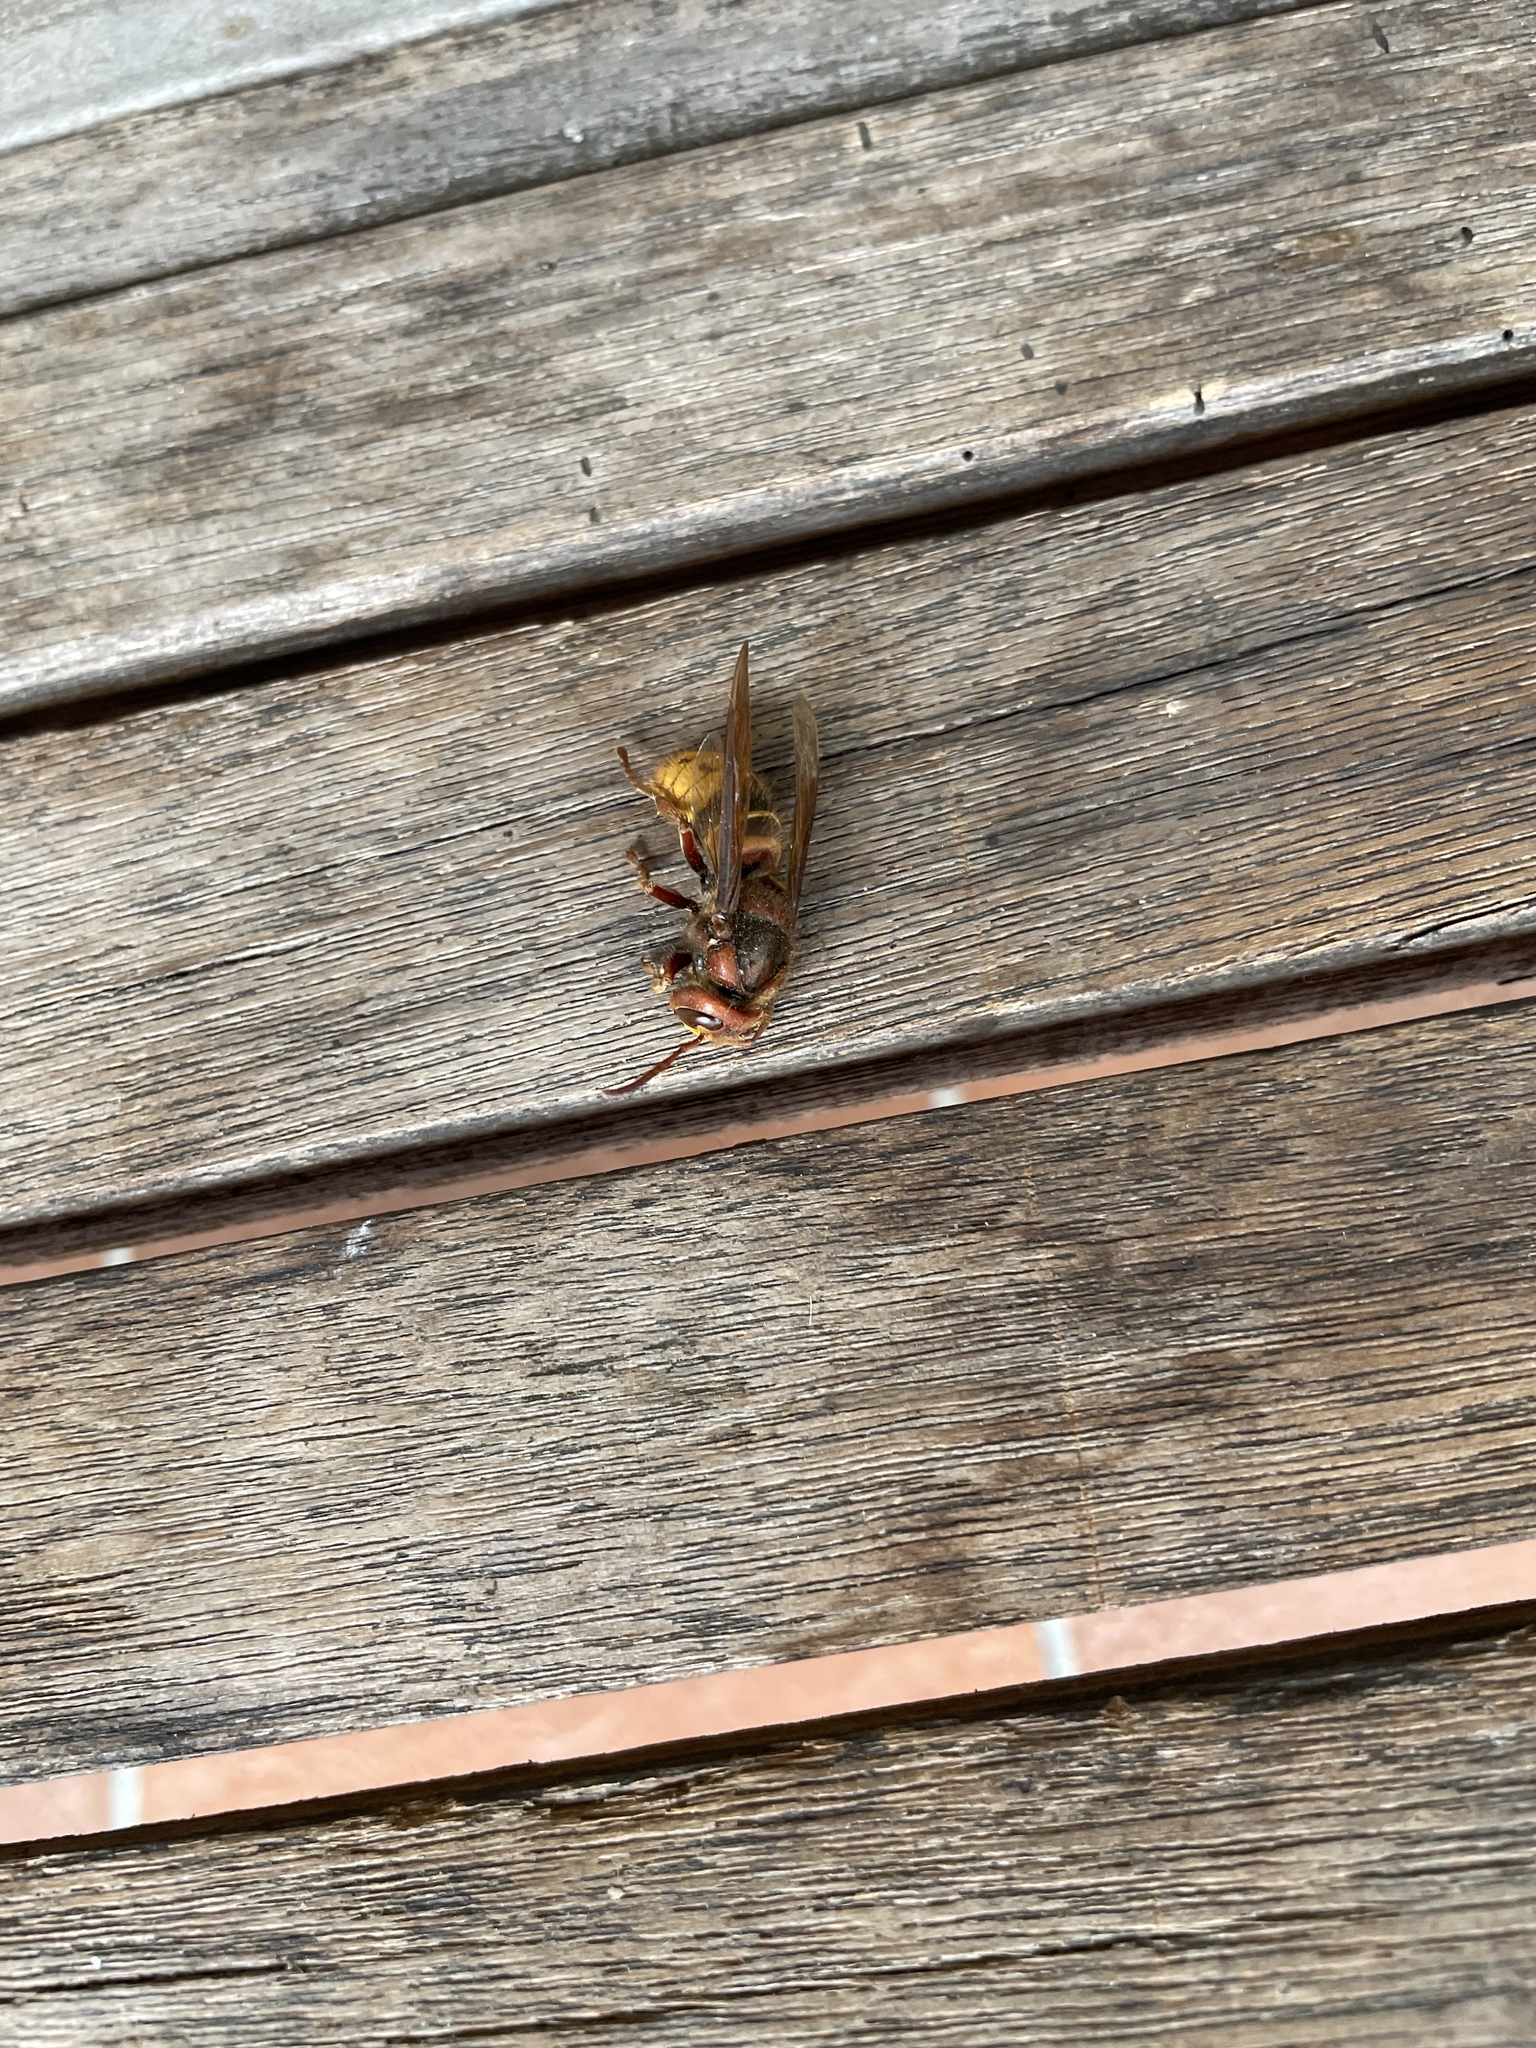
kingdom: Animalia
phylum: Arthropoda
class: Insecta
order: Hymenoptera
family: Vespidae
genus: Vespa
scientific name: Vespa crabro
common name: Hornet
